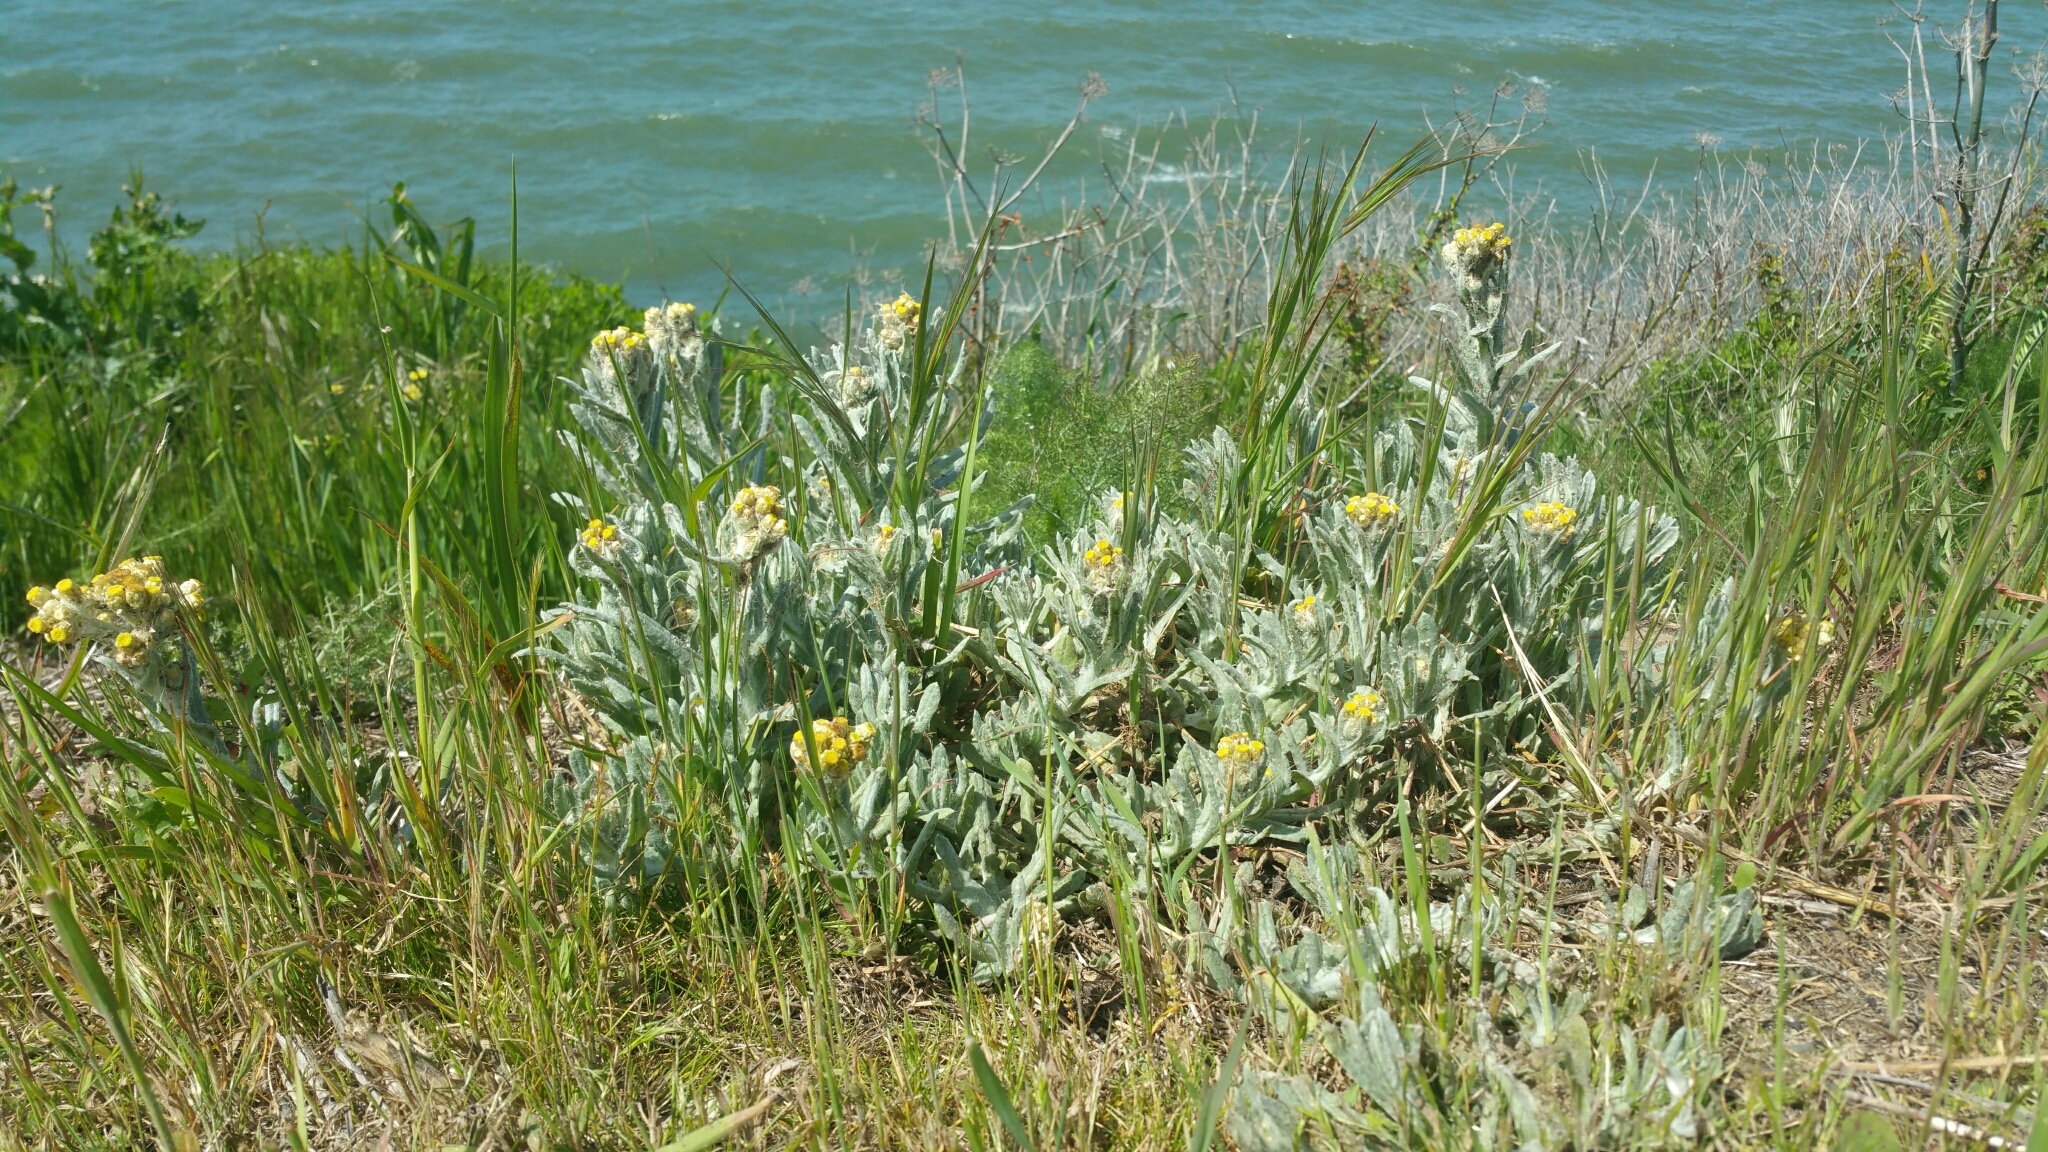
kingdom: Plantae
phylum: Tracheophyta
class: Magnoliopsida
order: Asterales
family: Asteraceae
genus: Pseudognaphalium
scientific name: Pseudognaphalium stramineum
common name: Cotton-batting-plant
